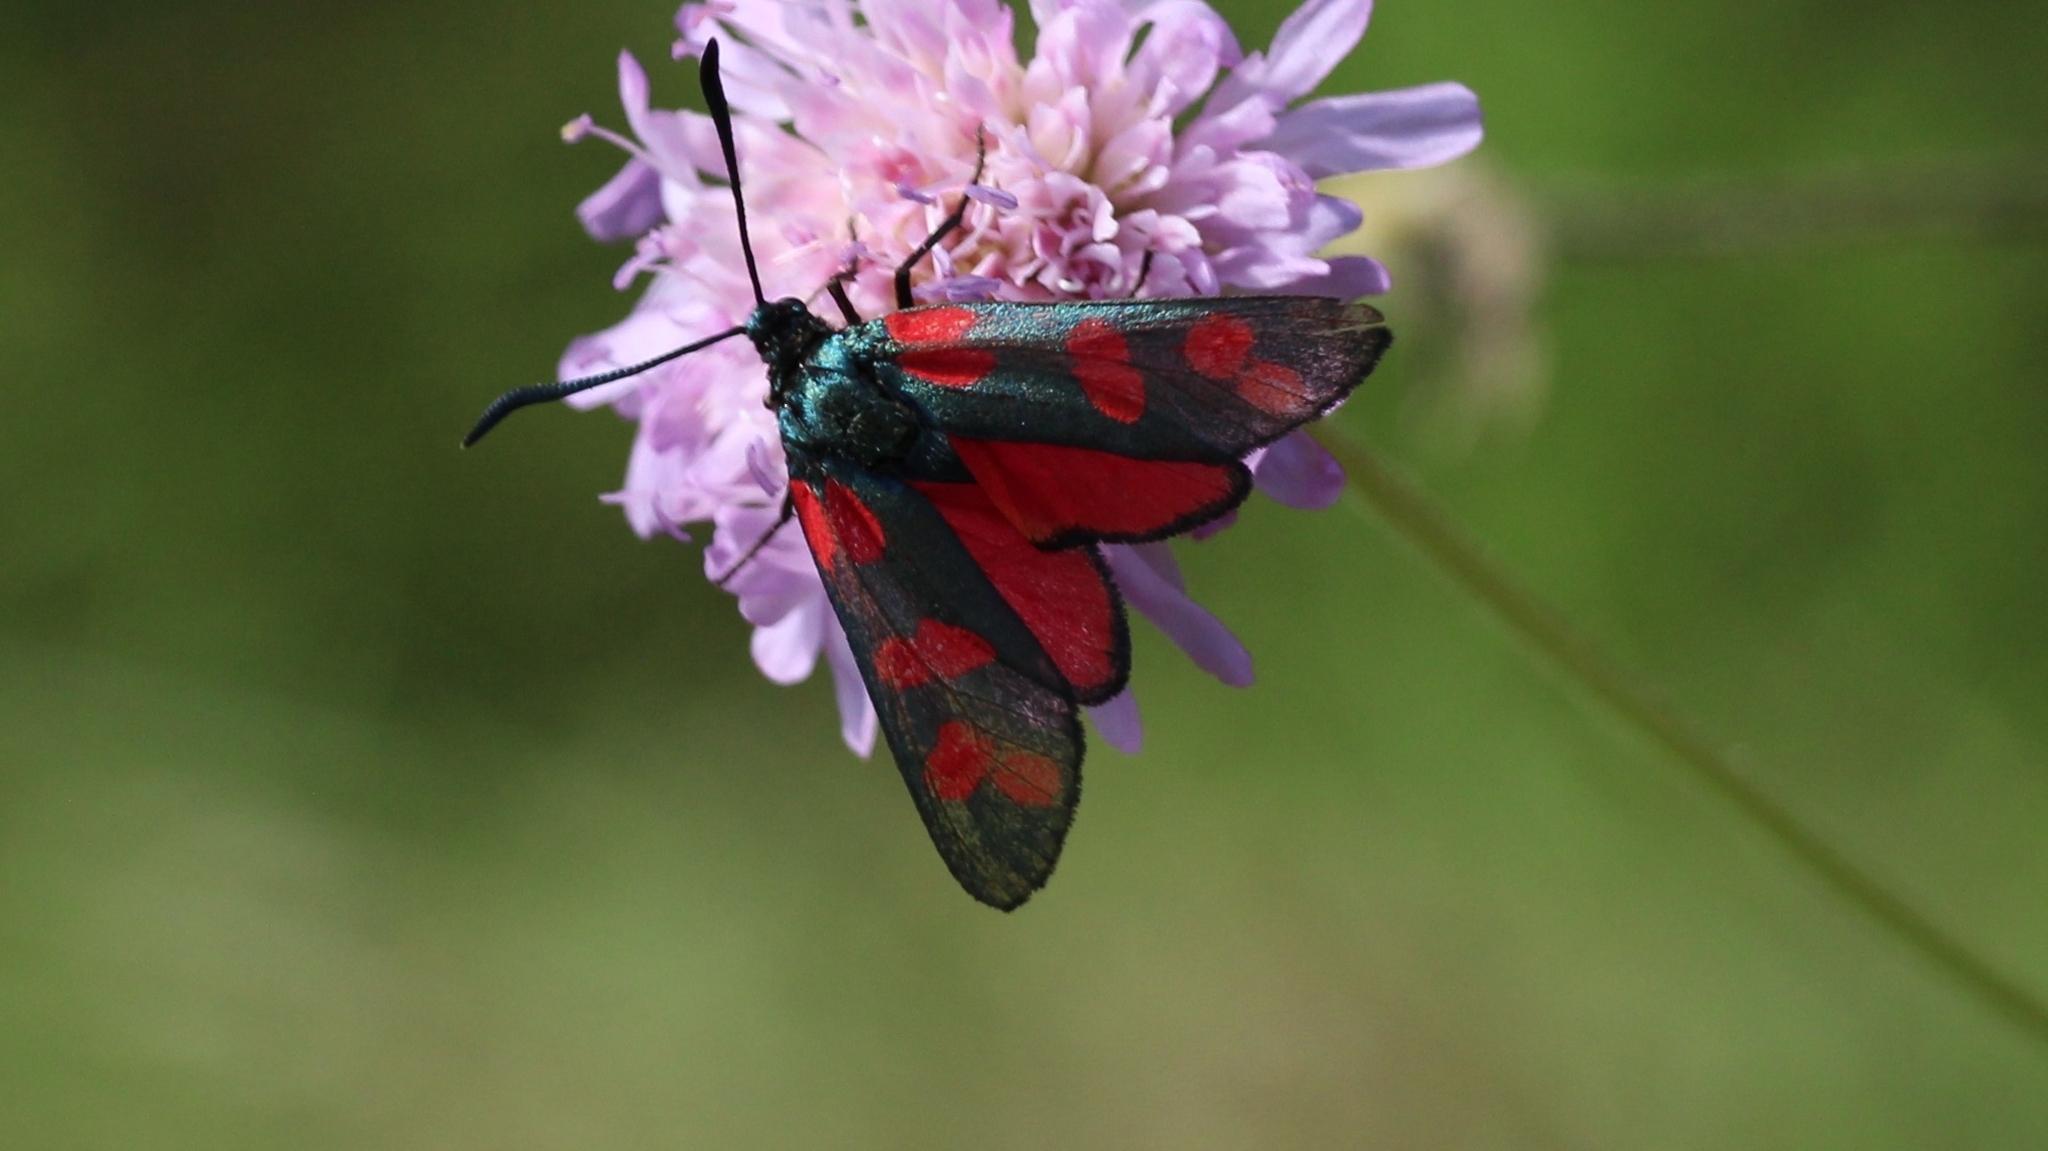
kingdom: Animalia
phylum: Arthropoda
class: Insecta
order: Lepidoptera
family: Zygaenidae
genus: Zygaena
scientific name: Zygaena filipendulae
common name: Six-spot burnet
